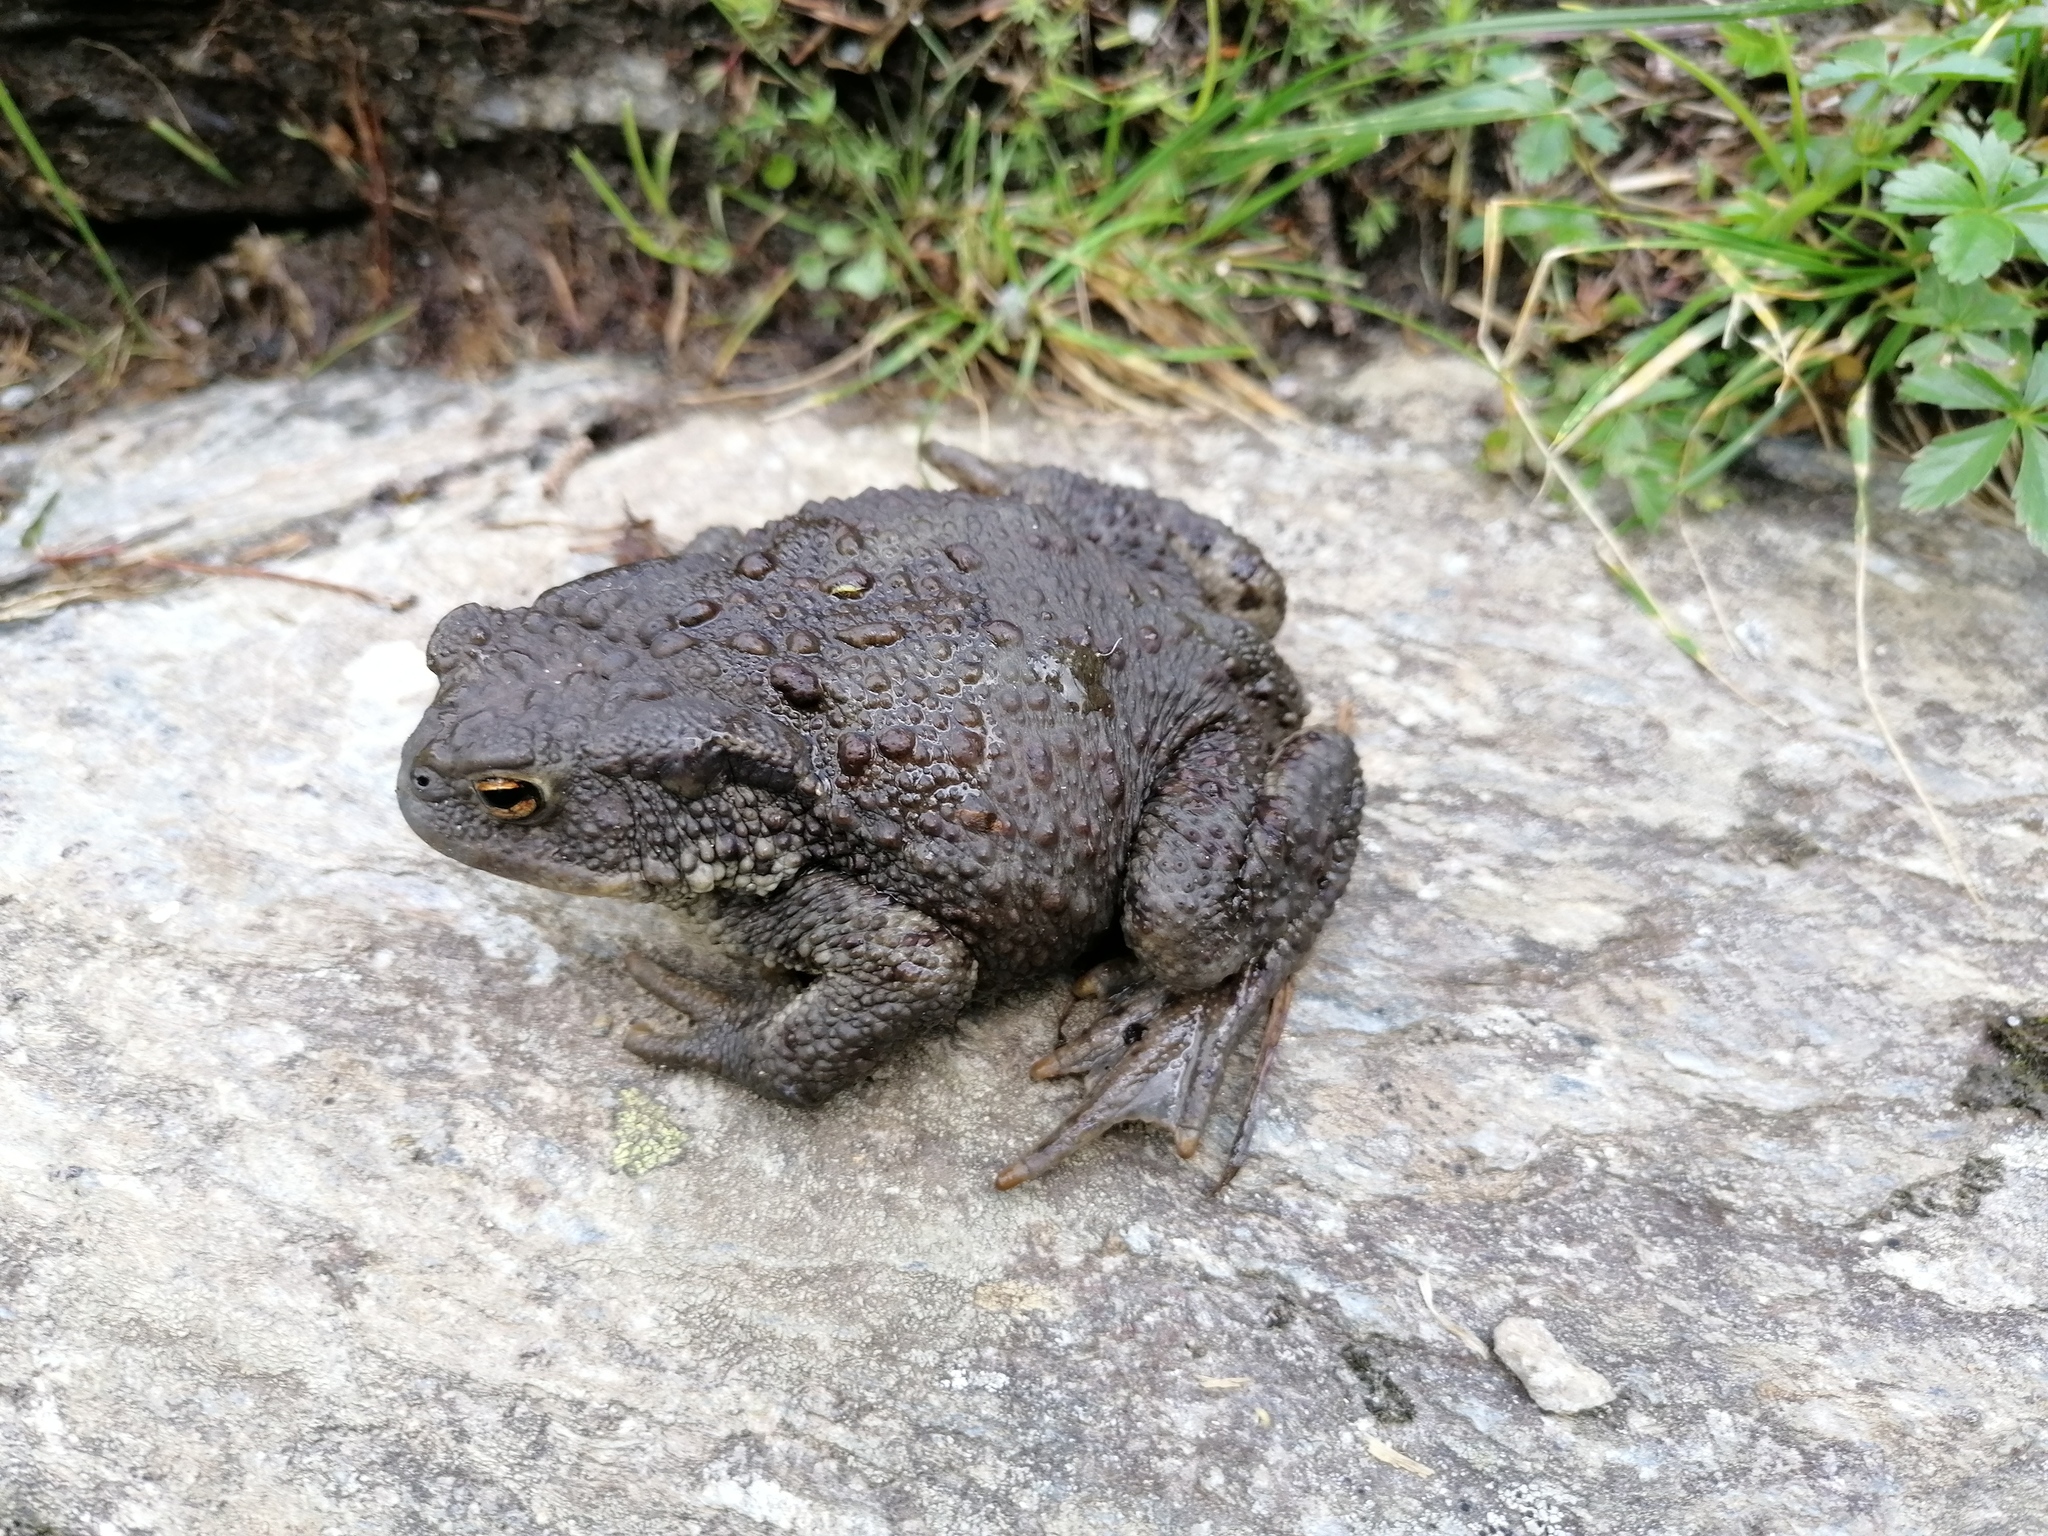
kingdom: Animalia
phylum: Chordata
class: Amphibia
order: Anura
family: Bufonidae
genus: Bufo
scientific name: Bufo bufo
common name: Common toad
